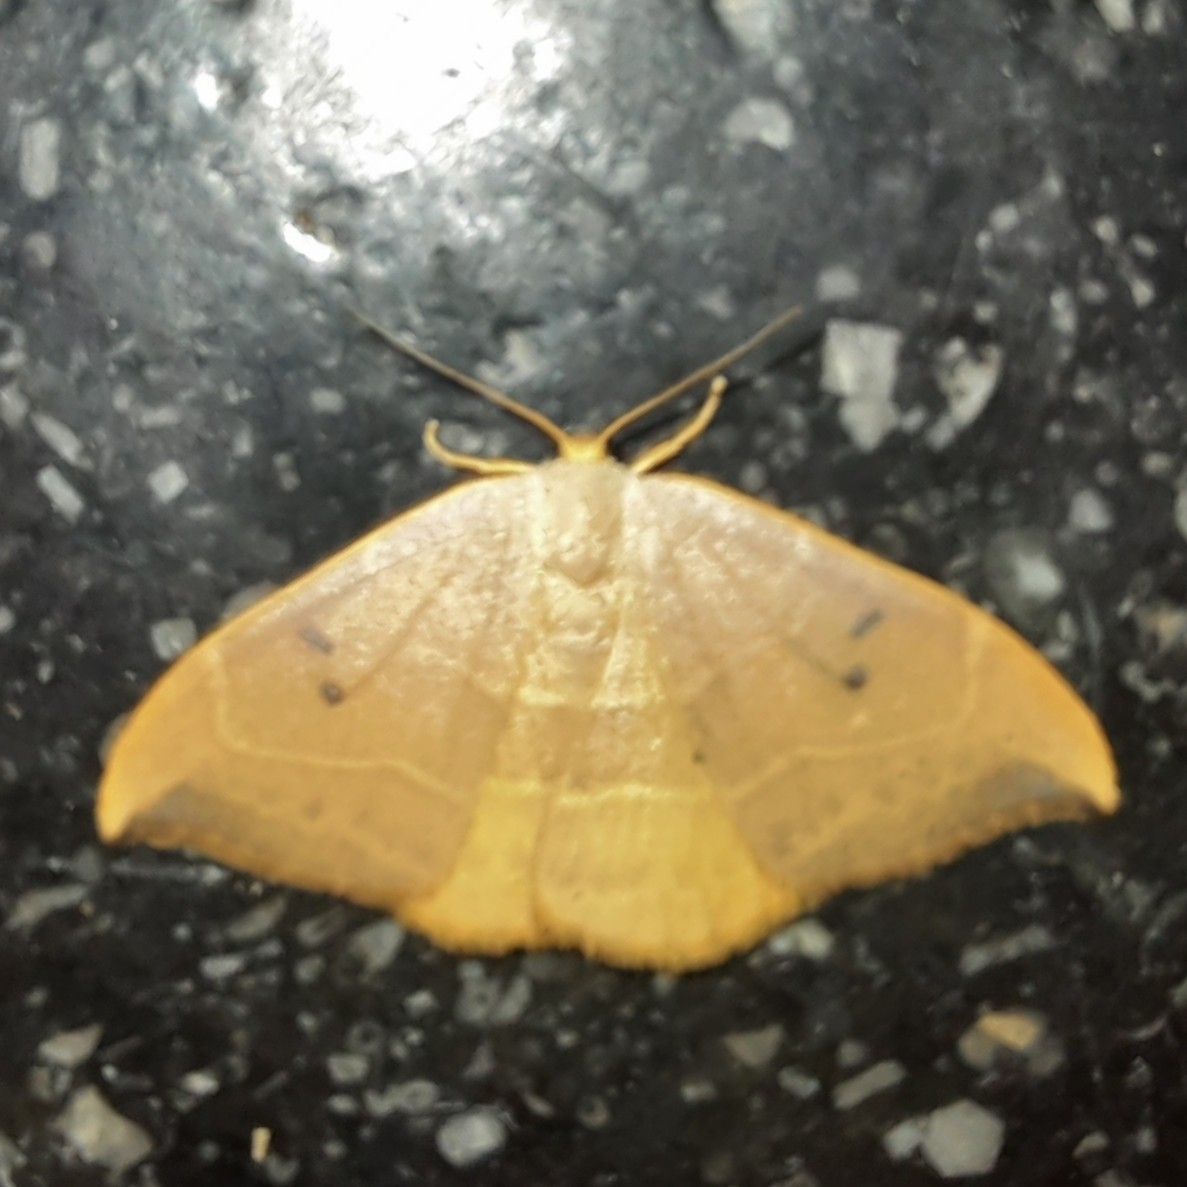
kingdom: Animalia
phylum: Arthropoda
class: Insecta
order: Lepidoptera
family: Drepanidae
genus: Watsonalla
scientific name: Watsonalla binaria
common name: Oak hook-tip
